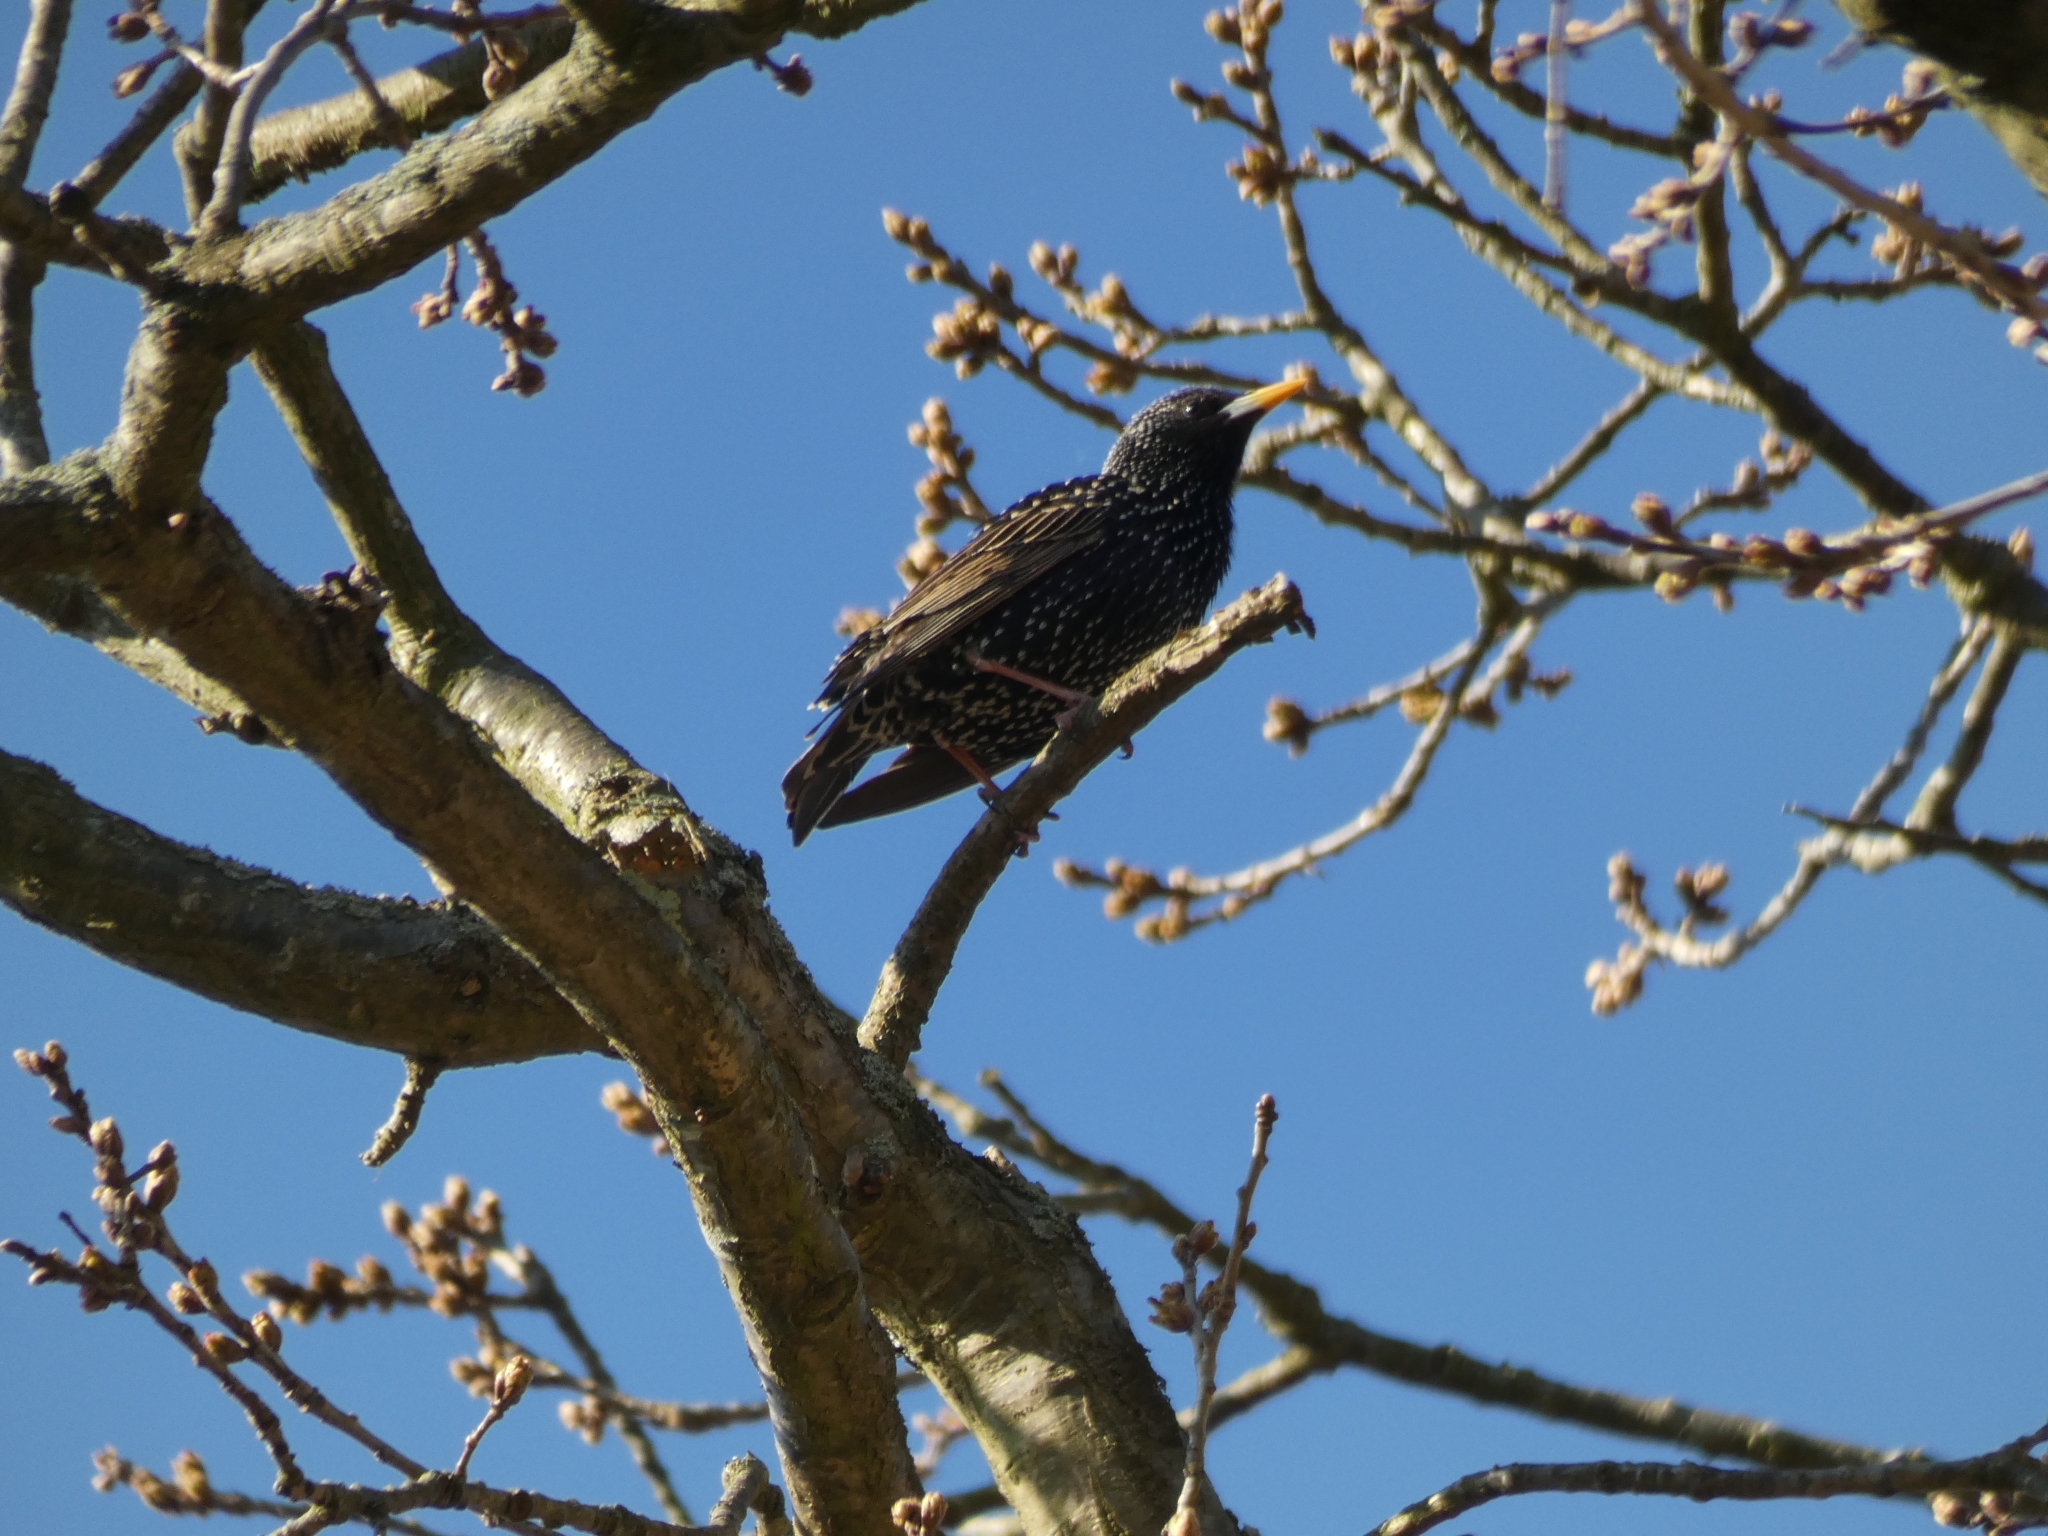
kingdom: Animalia
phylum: Chordata
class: Aves
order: Passeriformes
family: Sturnidae
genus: Sturnus
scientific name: Sturnus vulgaris
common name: Common starling
